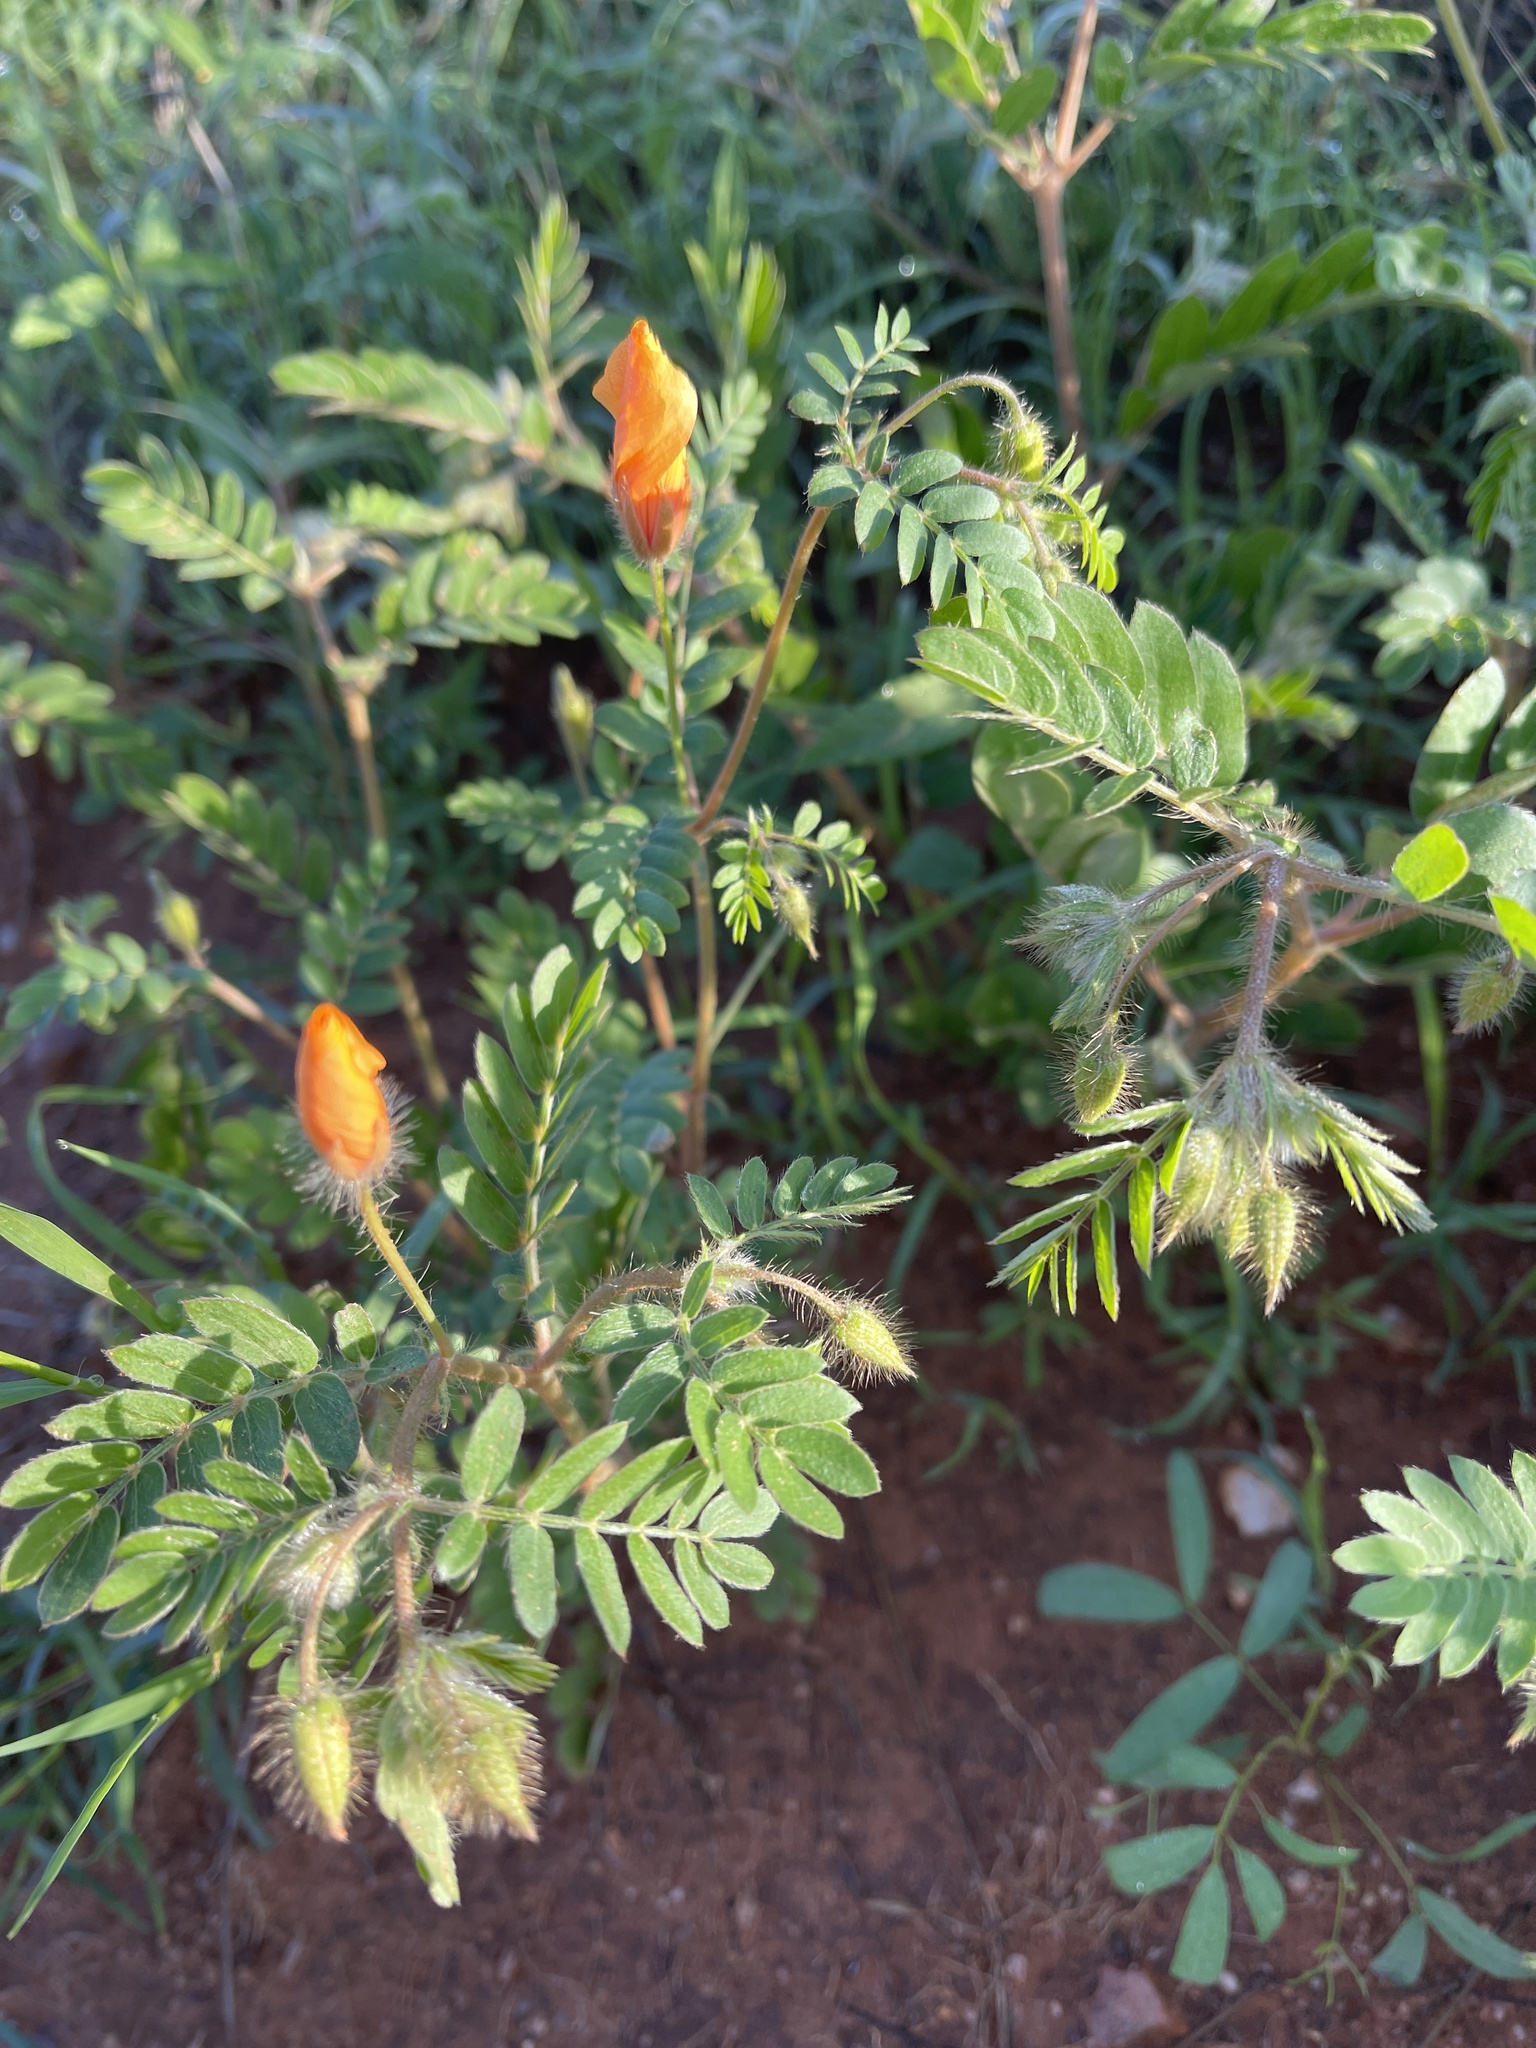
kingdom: Plantae
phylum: Tracheophyta
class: Magnoliopsida
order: Zygophyllales
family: Zygophyllaceae
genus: Kallstroemia
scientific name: Kallstroemia grandiflora
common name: Arizona-poppy
